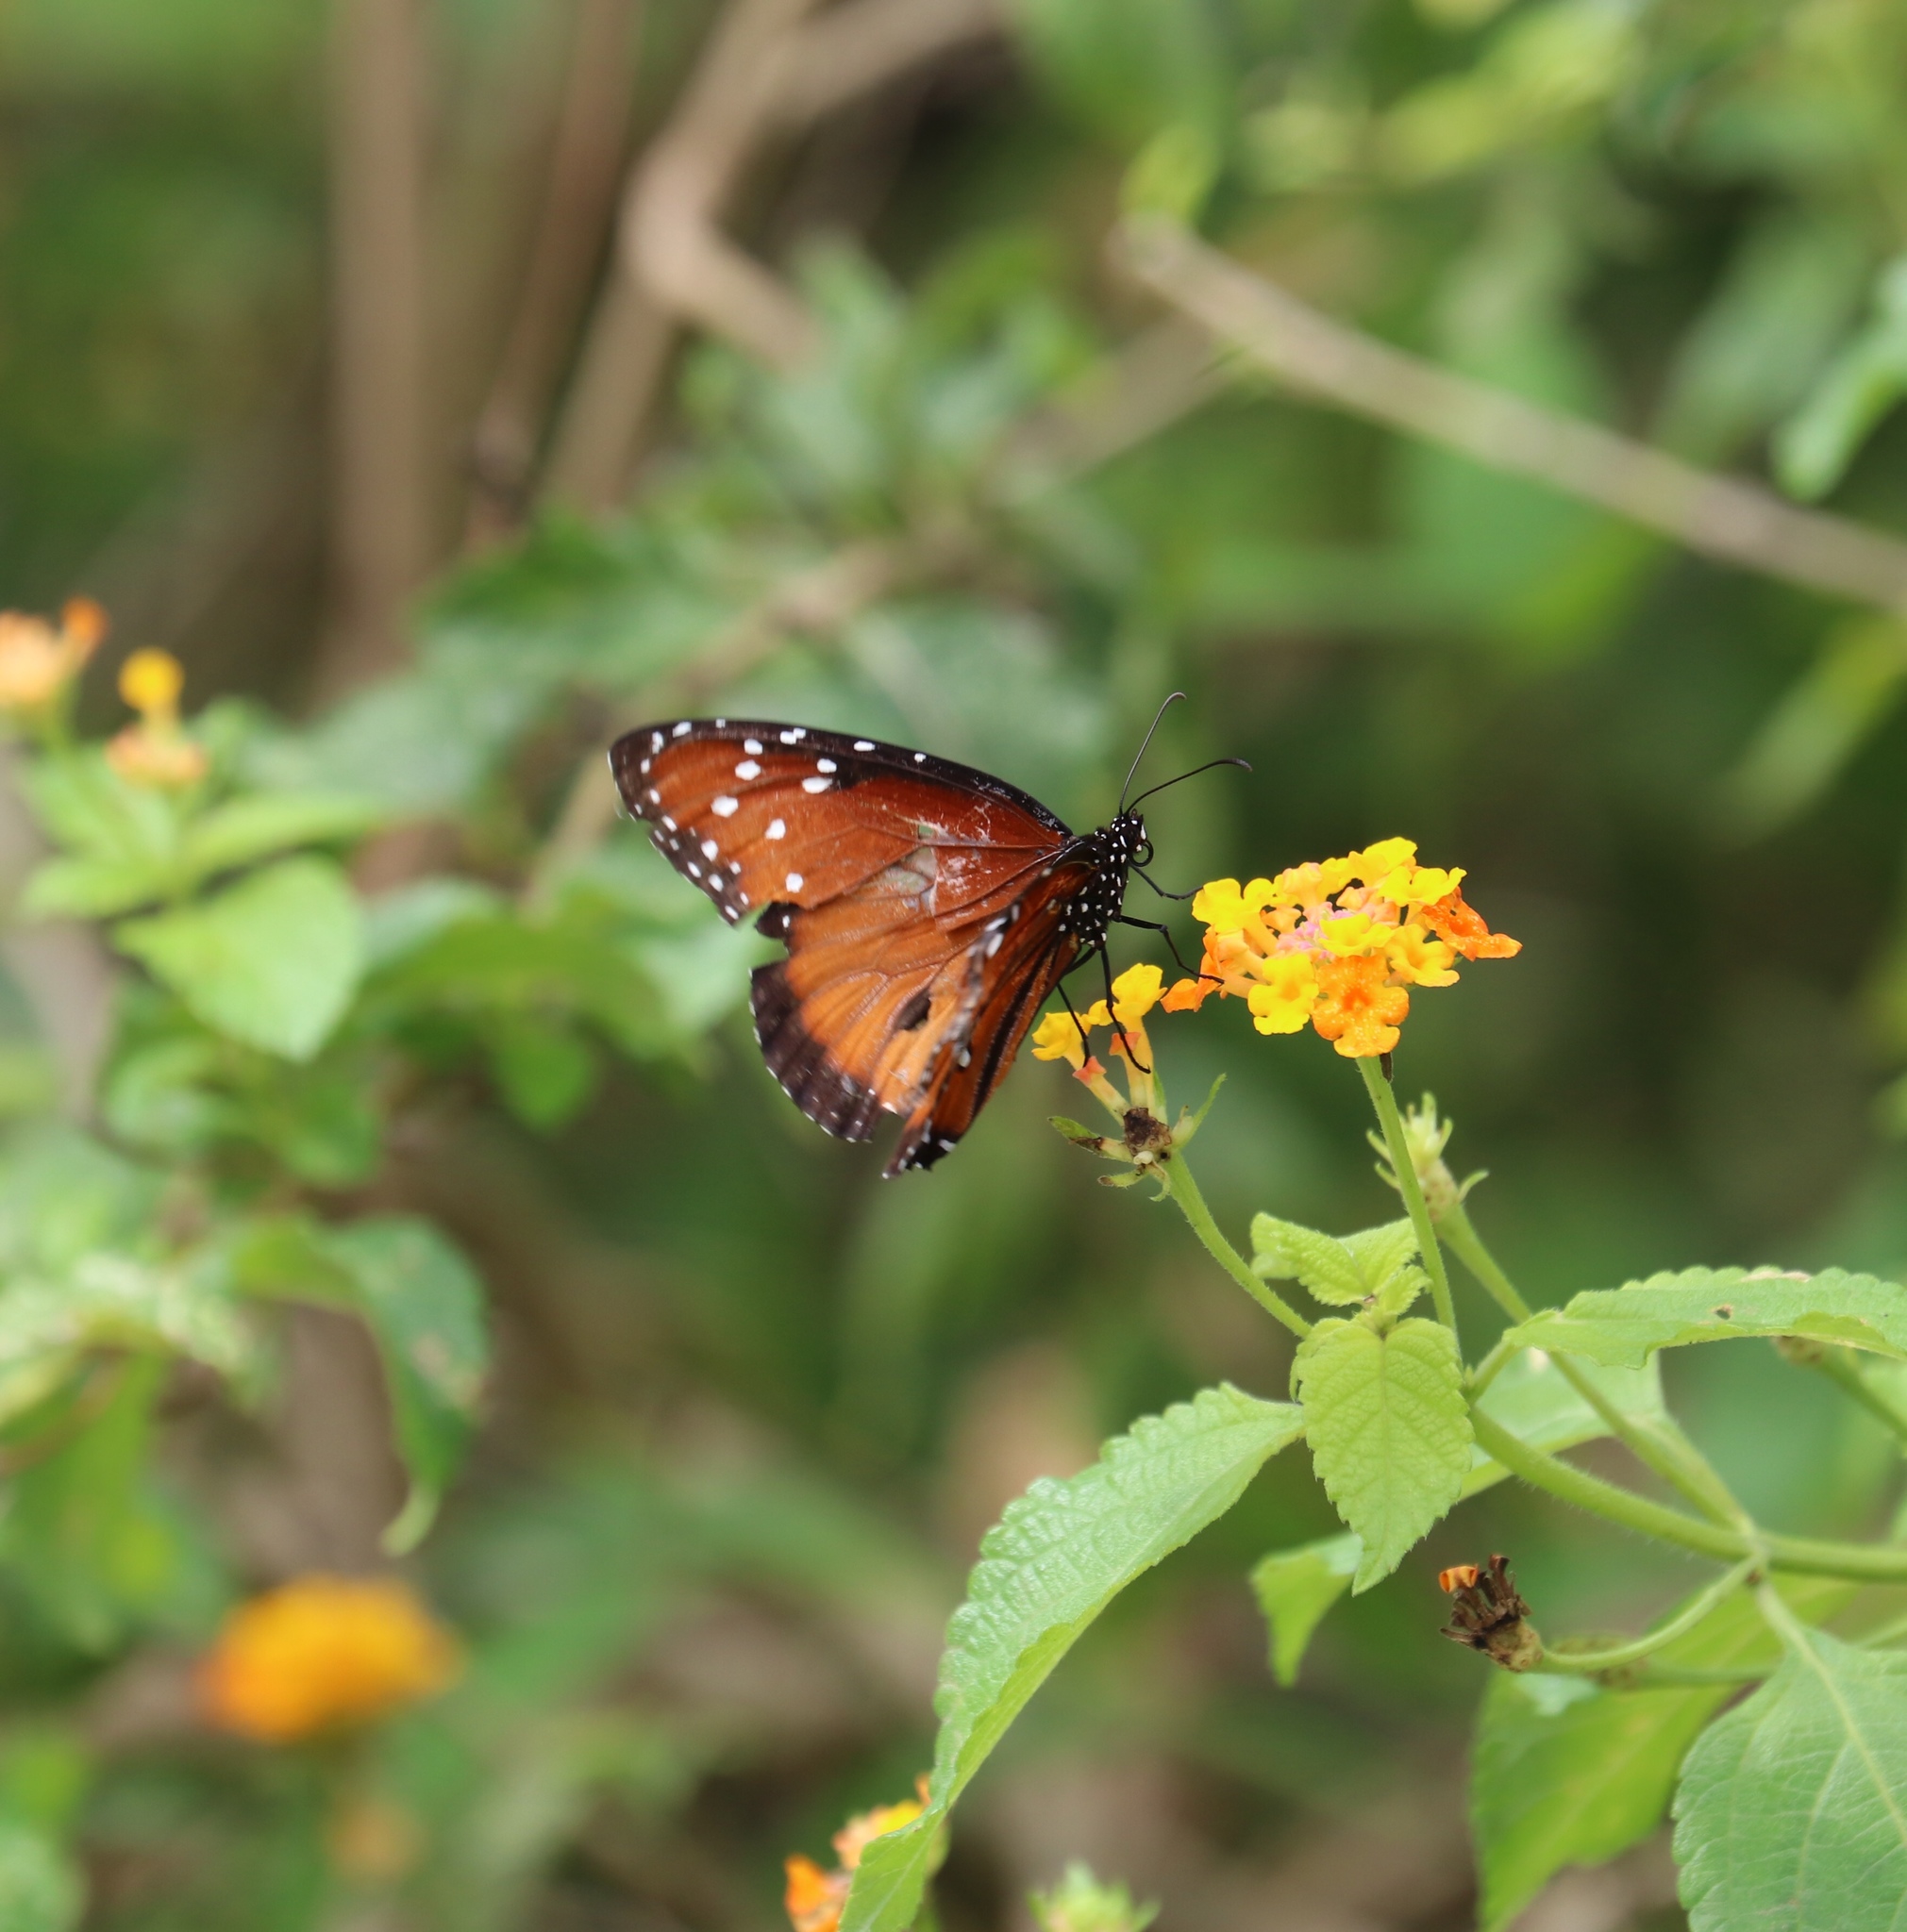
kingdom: Animalia
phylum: Arthropoda
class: Insecta
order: Lepidoptera
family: Nymphalidae
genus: Danaus
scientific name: Danaus gilippus
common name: Queen
